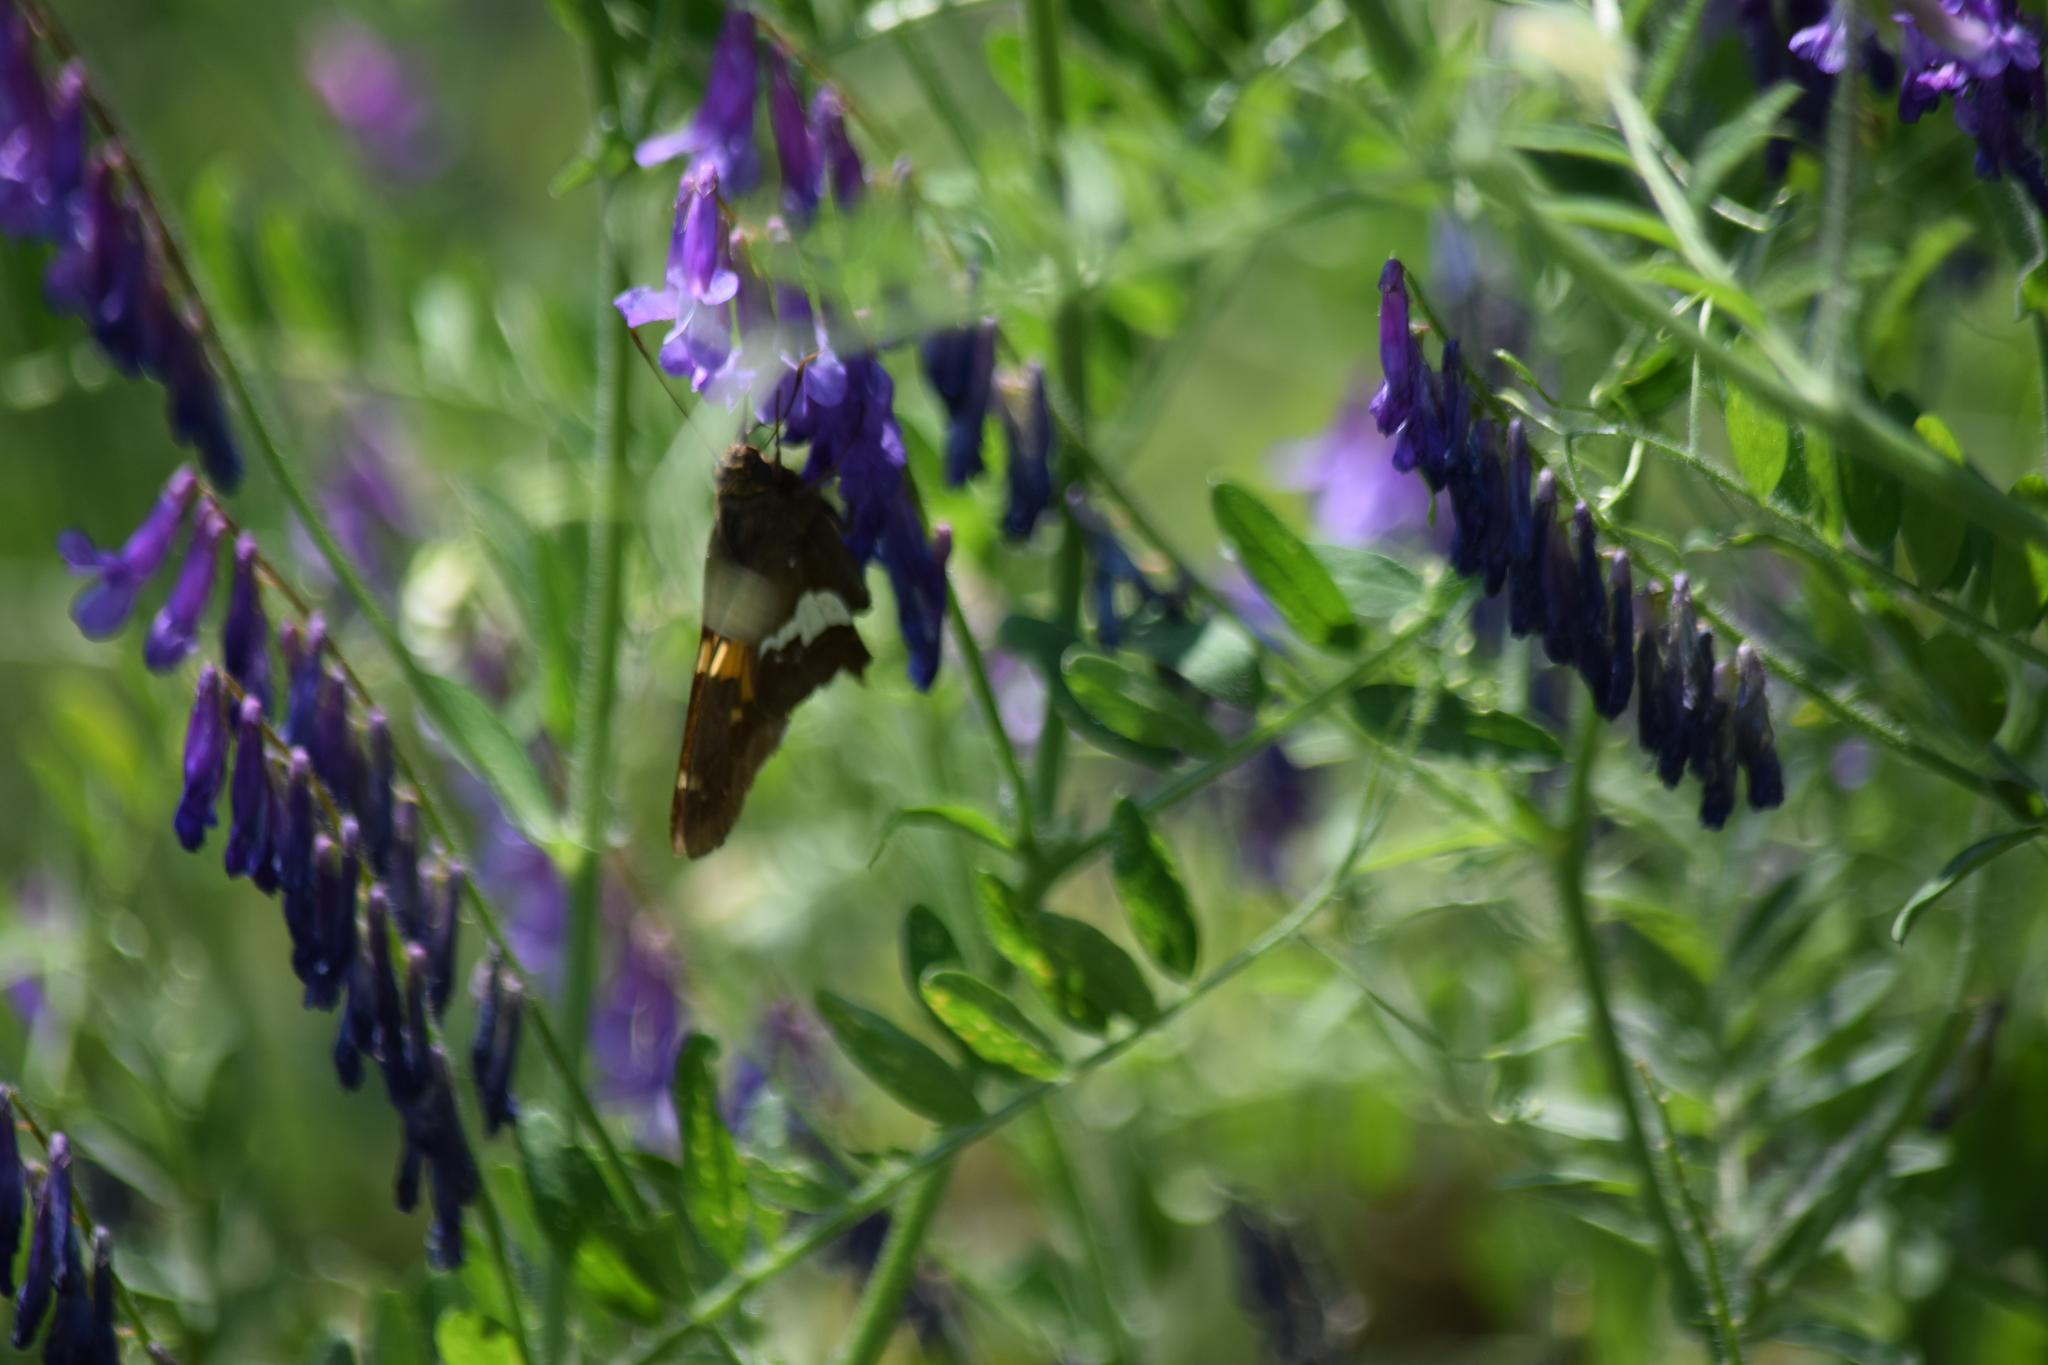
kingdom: Animalia
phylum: Arthropoda
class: Insecta
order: Lepidoptera
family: Hesperiidae
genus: Epargyreus
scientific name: Epargyreus clarus
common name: Silver-spotted skipper
